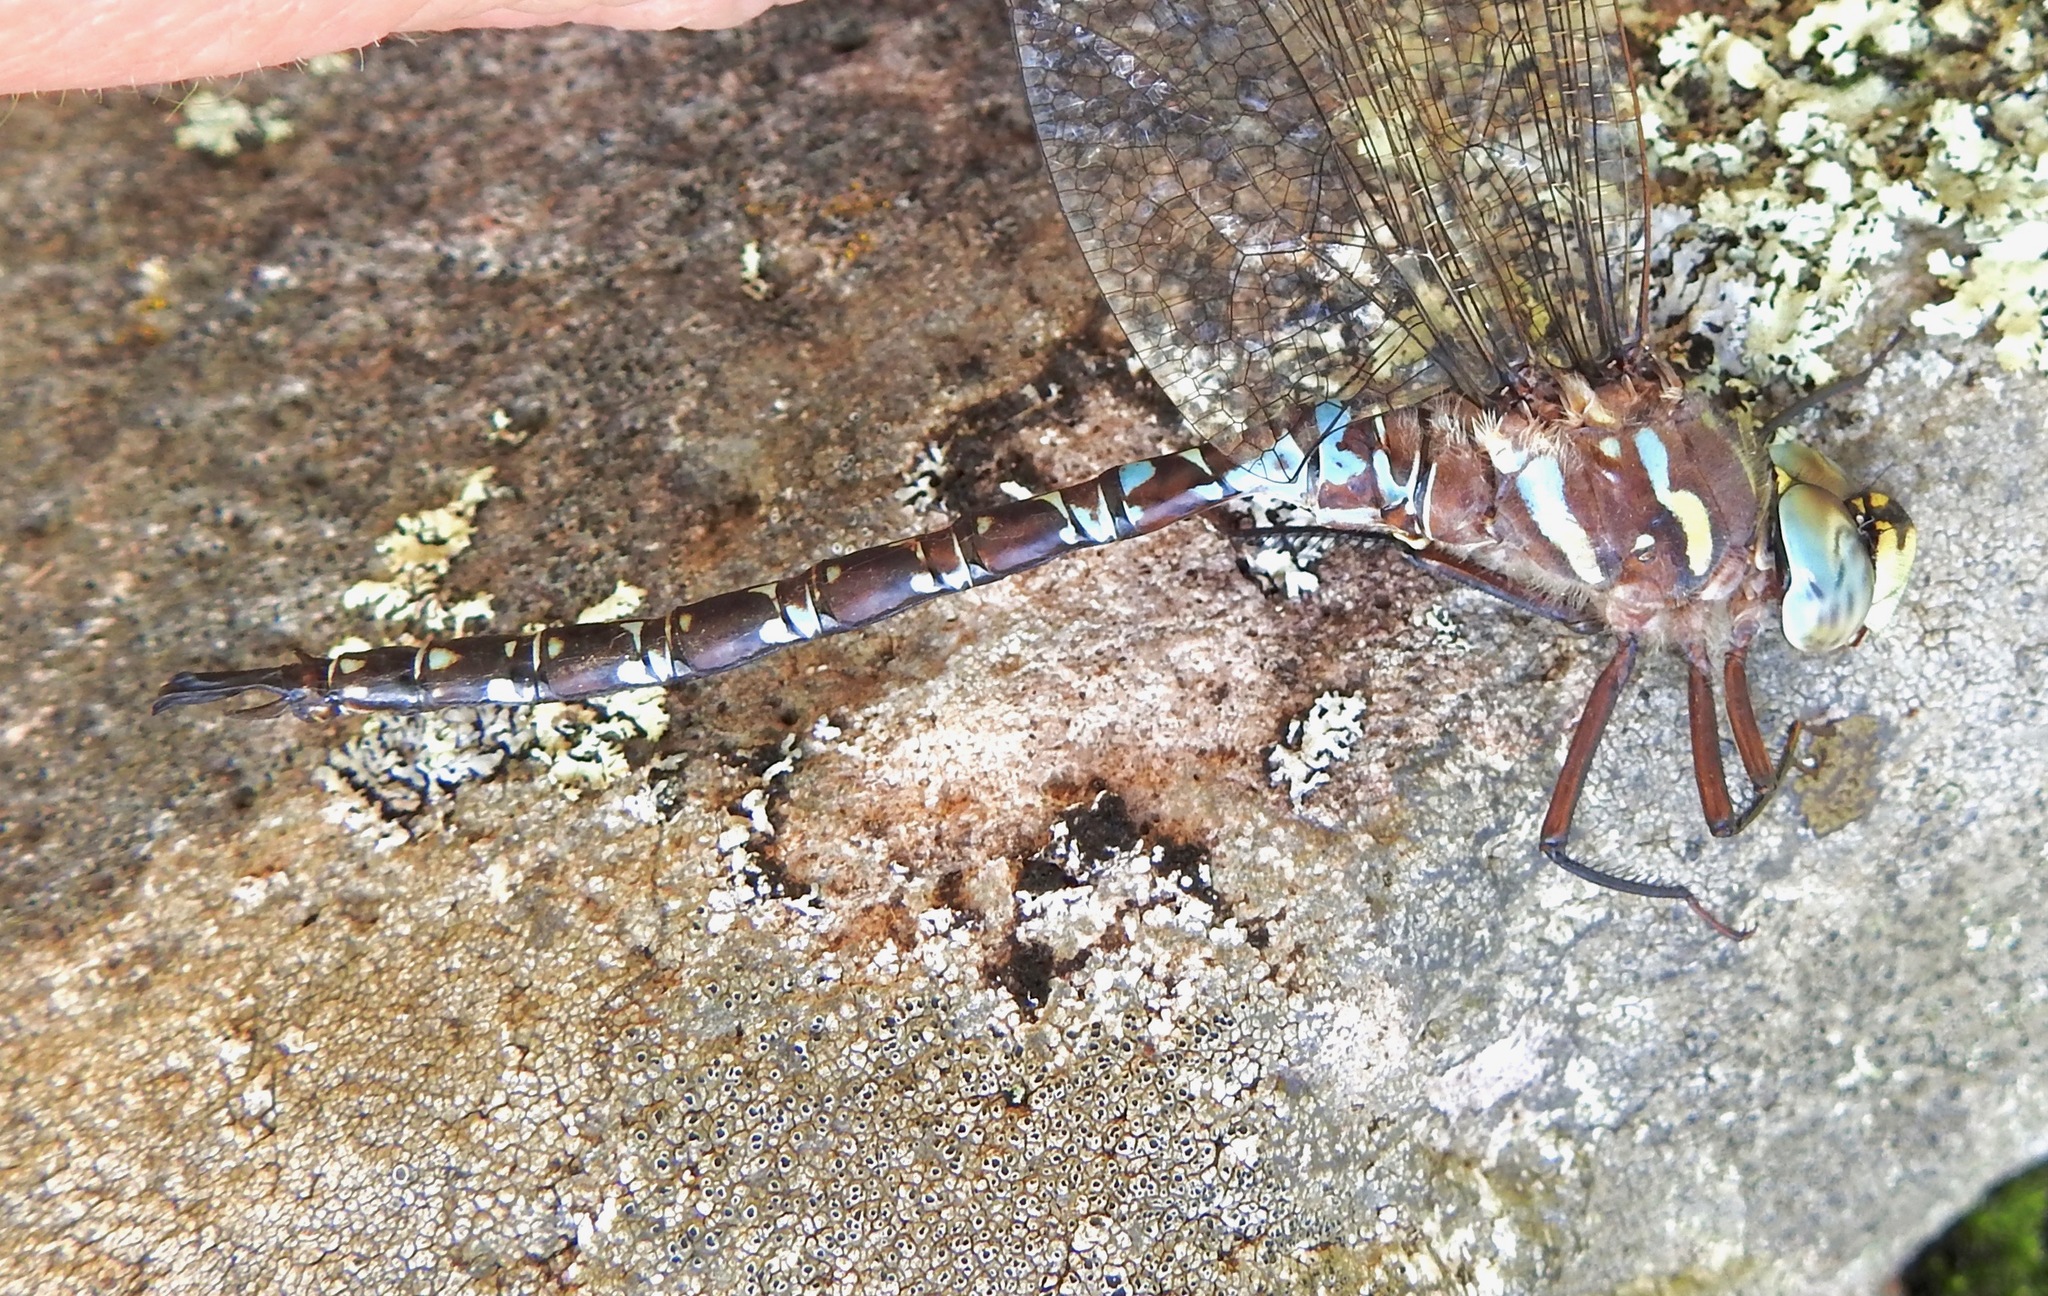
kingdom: Animalia
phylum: Arthropoda
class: Insecta
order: Odonata
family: Aeshnidae
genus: Oplonaeschna
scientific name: Oplonaeschna armata
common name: Riffle darner
